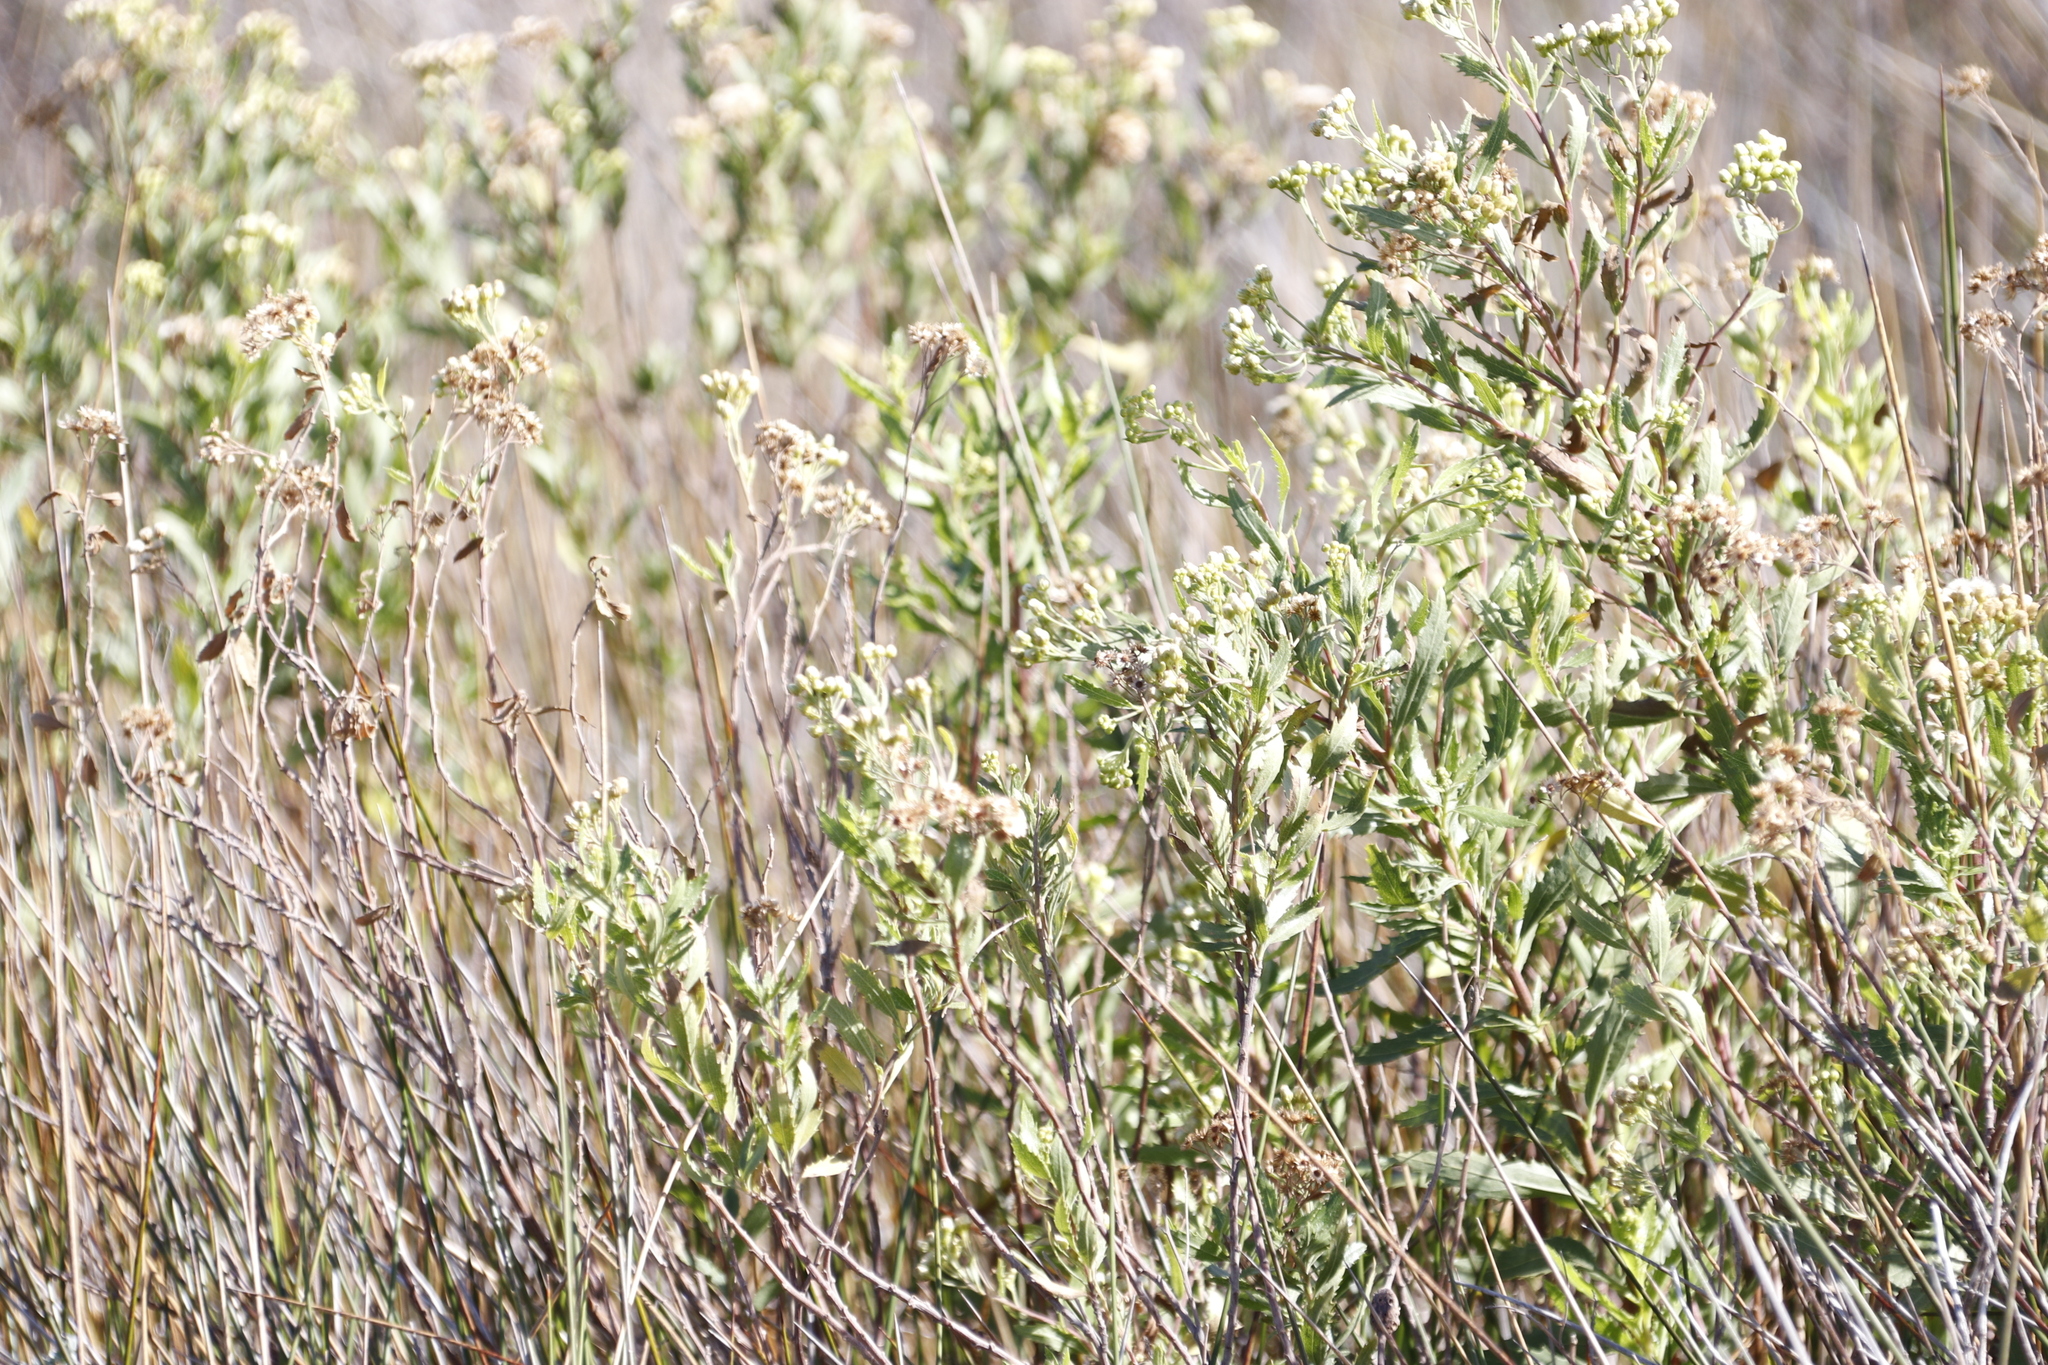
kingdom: Plantae
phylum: Tracheophyta
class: Magnoliopsida
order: Asterales
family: Asteraceae
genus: Nidorella
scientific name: Nidorella ivifolia
